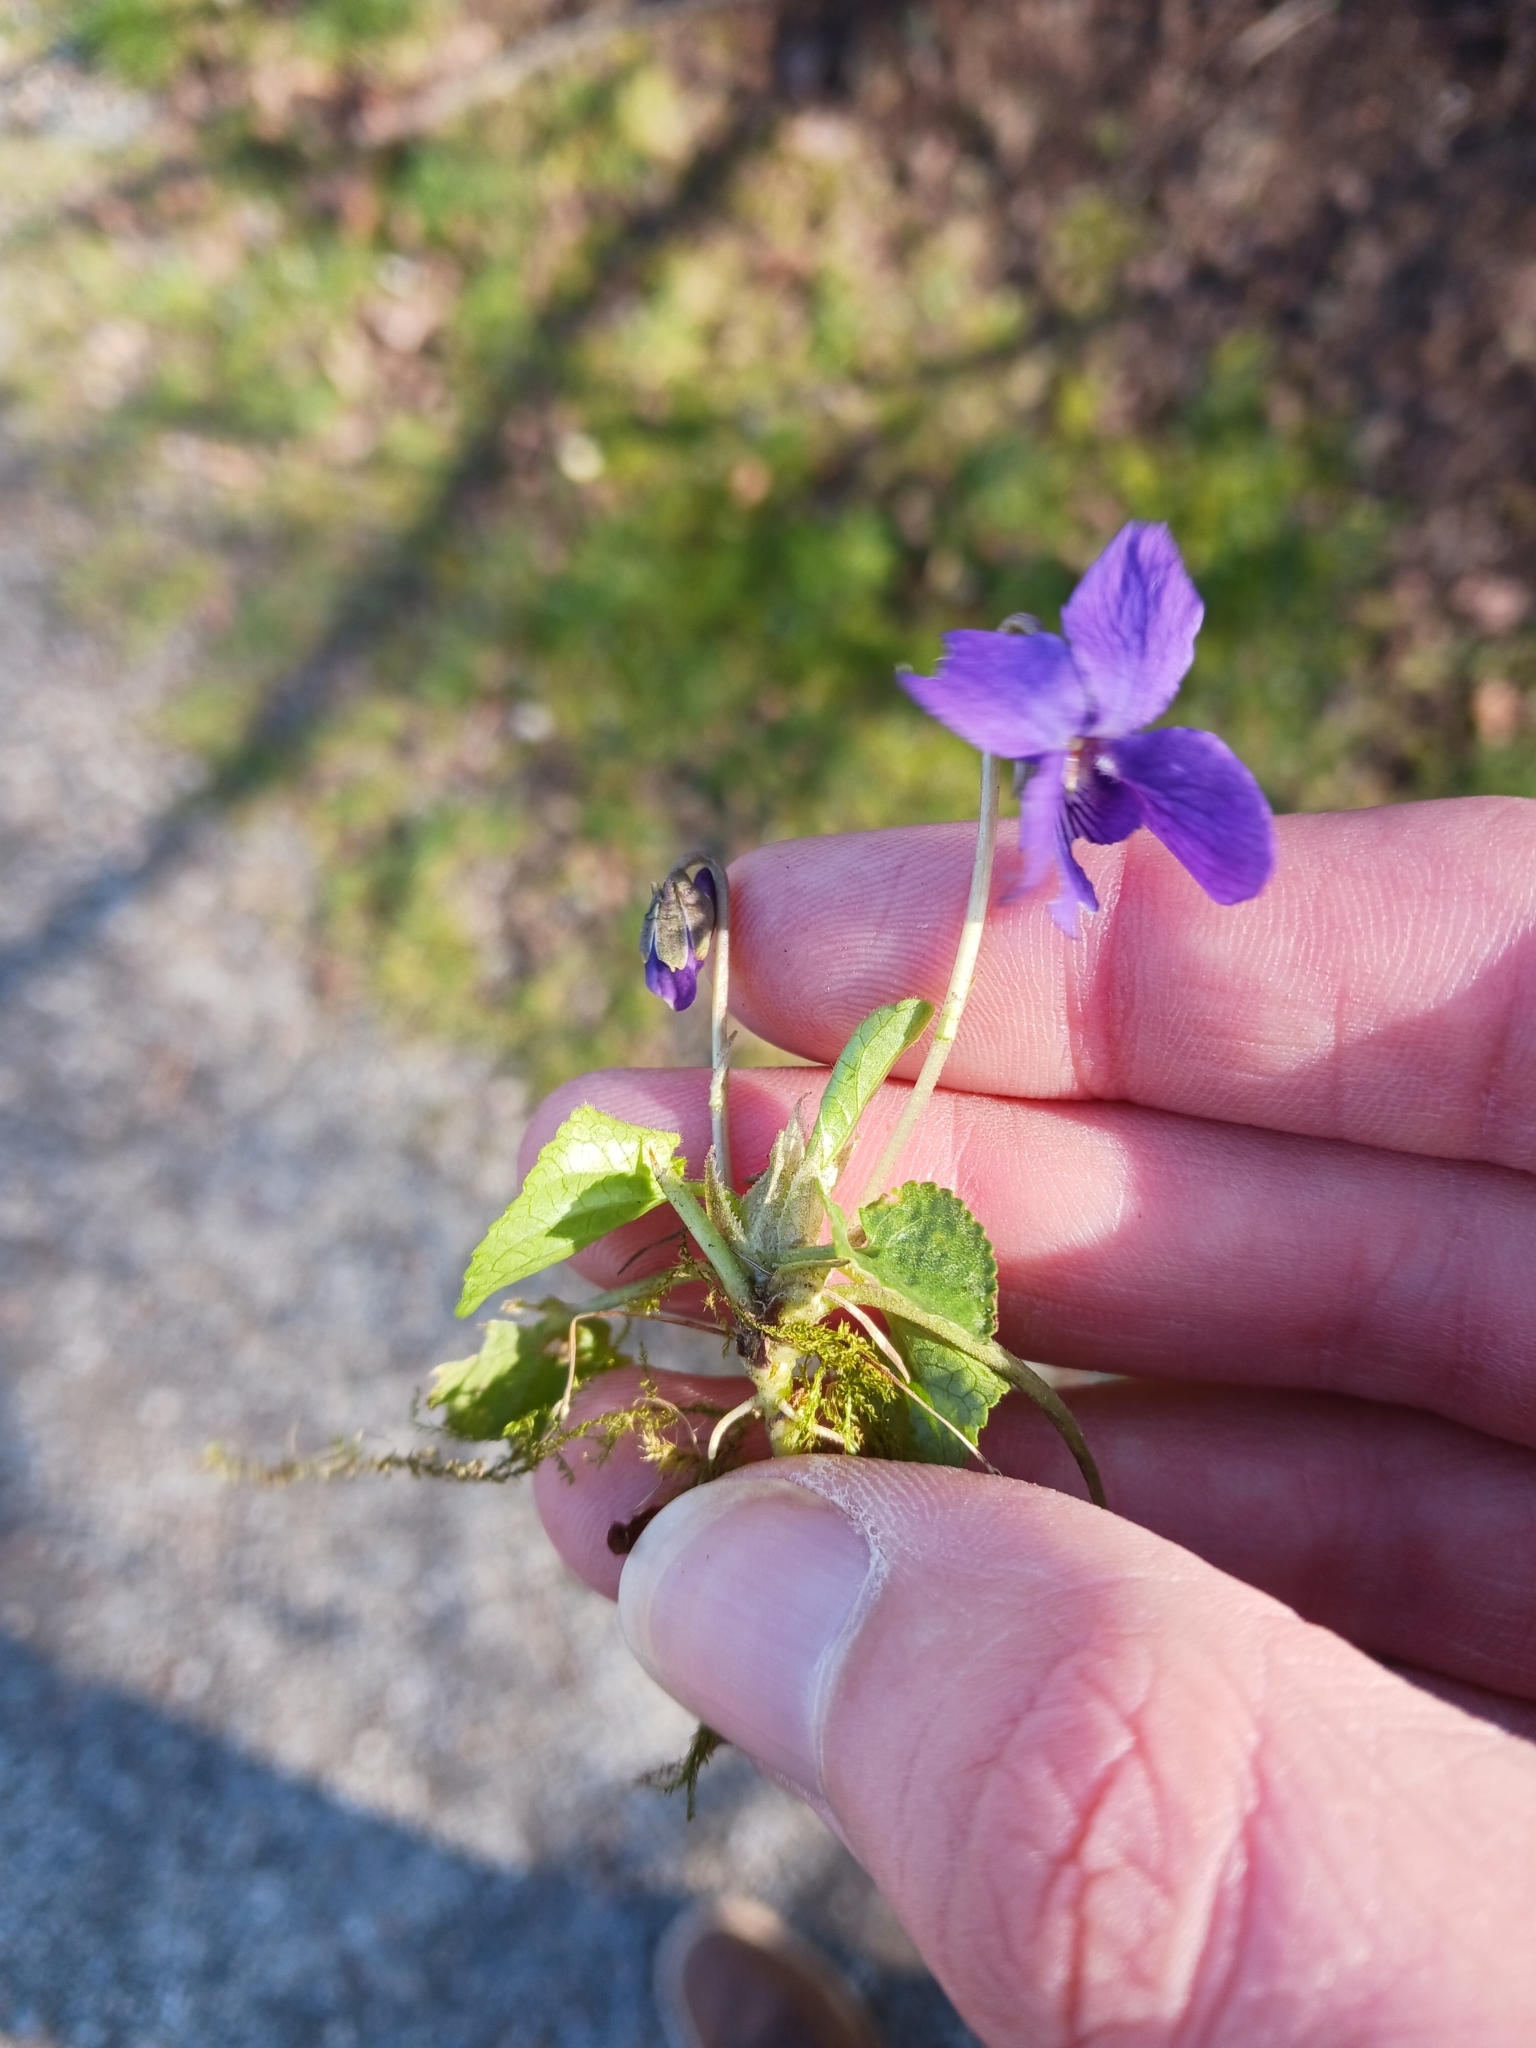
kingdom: Plantae
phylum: Tracheophyta
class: Magnoliopsida
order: Malpighiales
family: Violaceae
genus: Viola
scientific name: Viola odorata
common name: Sweet violet
